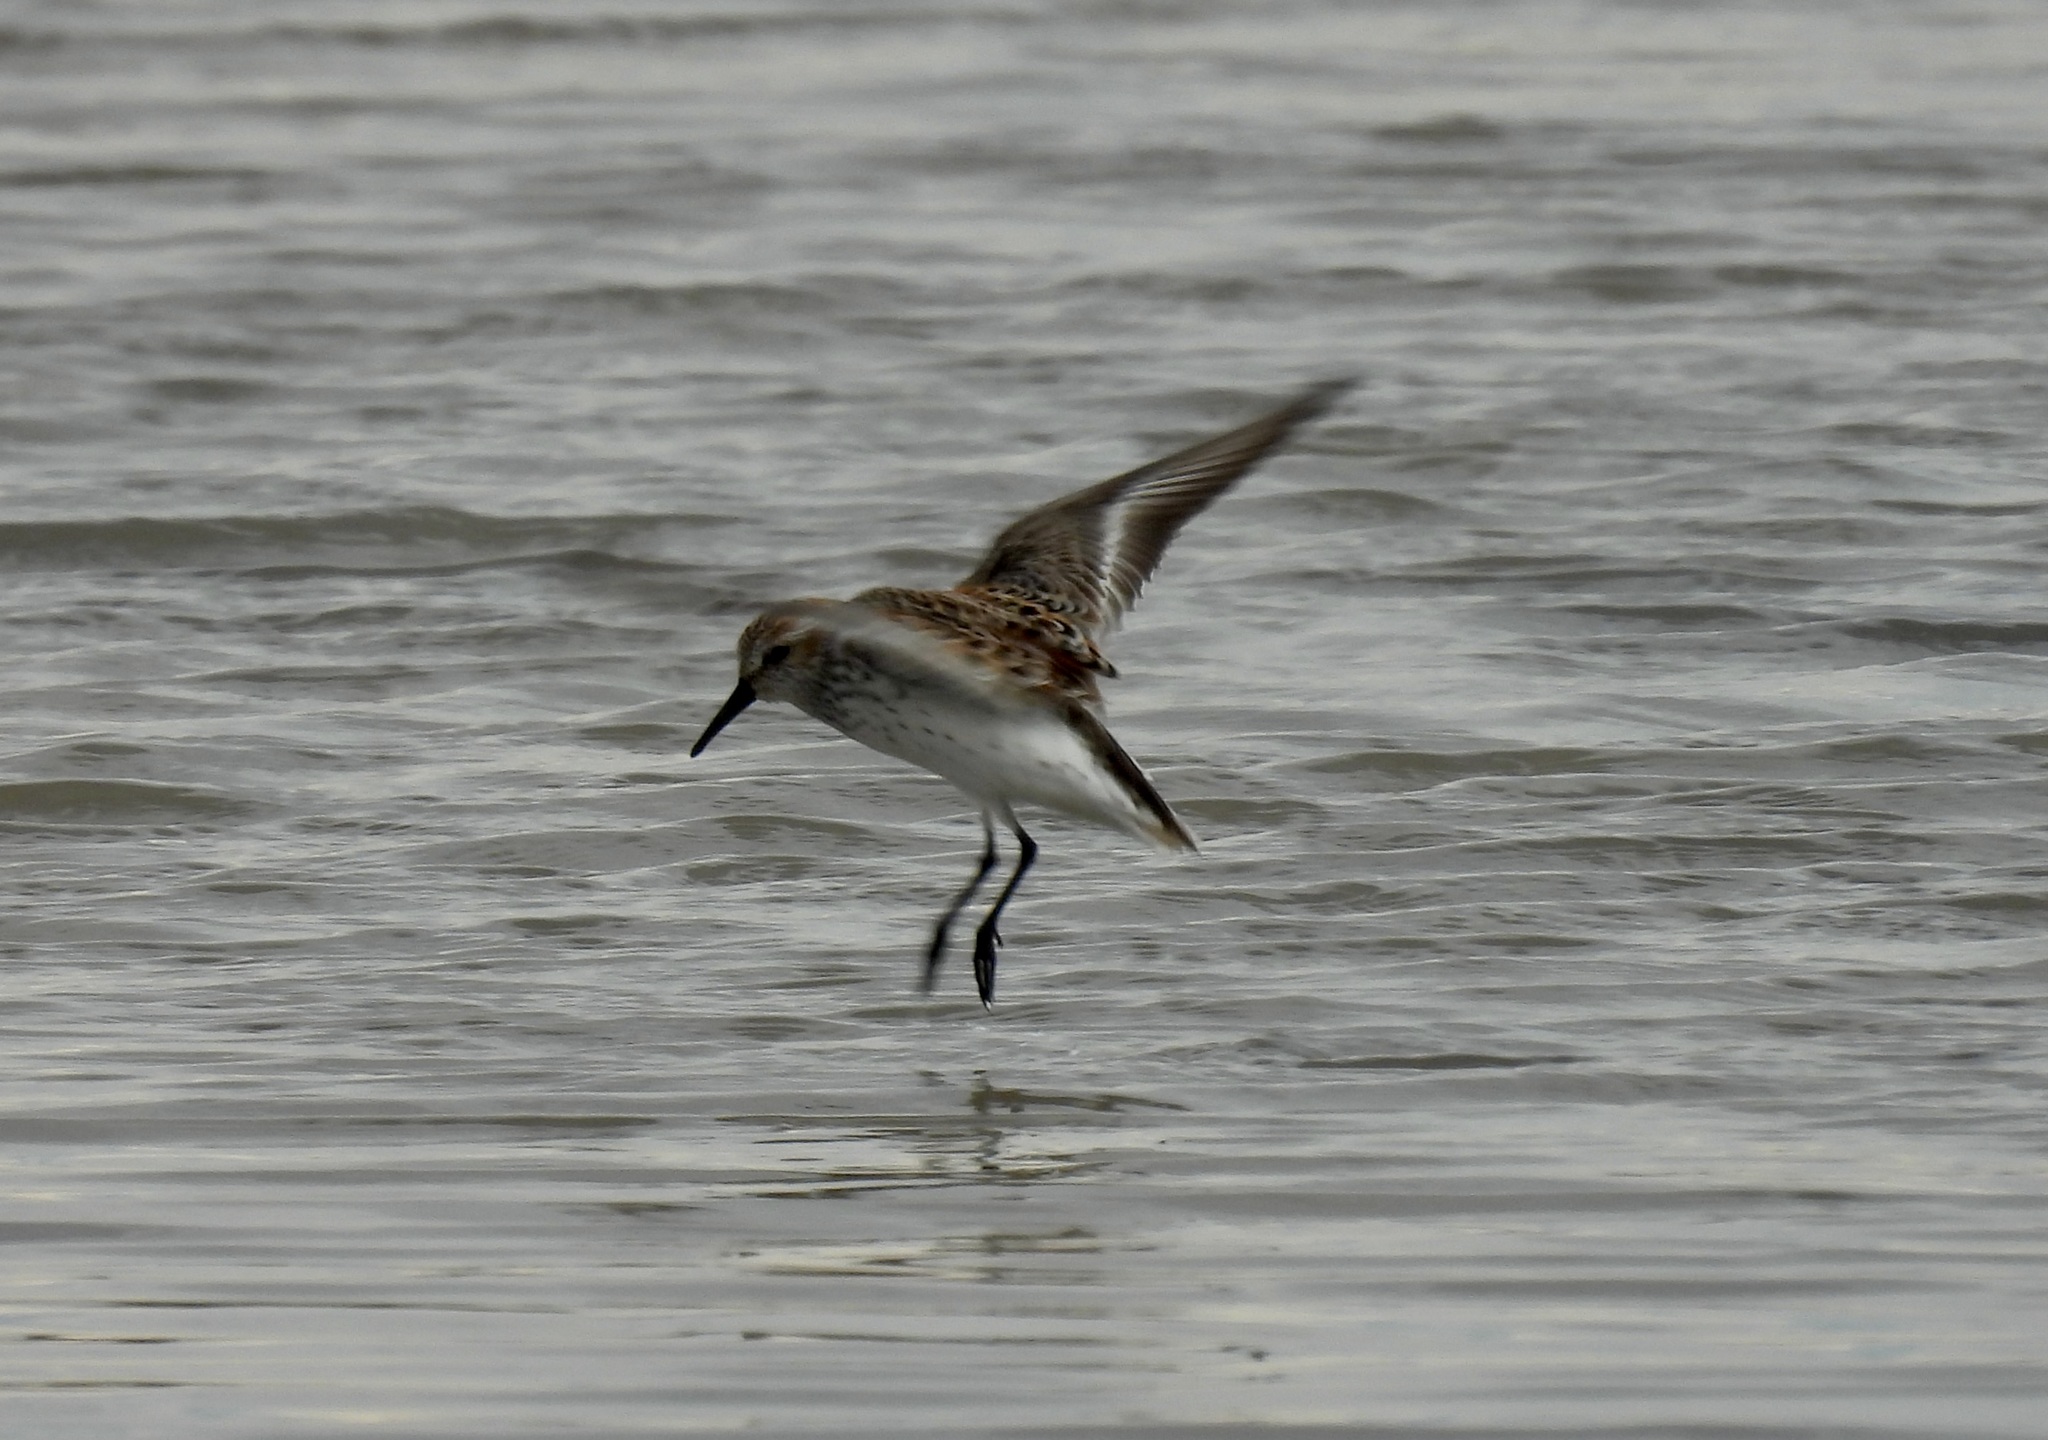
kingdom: Animalia
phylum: Chordata
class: Aves
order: Charadriiformes
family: Scolopacidae
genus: Calidris
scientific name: Calidris mauri
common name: Western sandpiper
